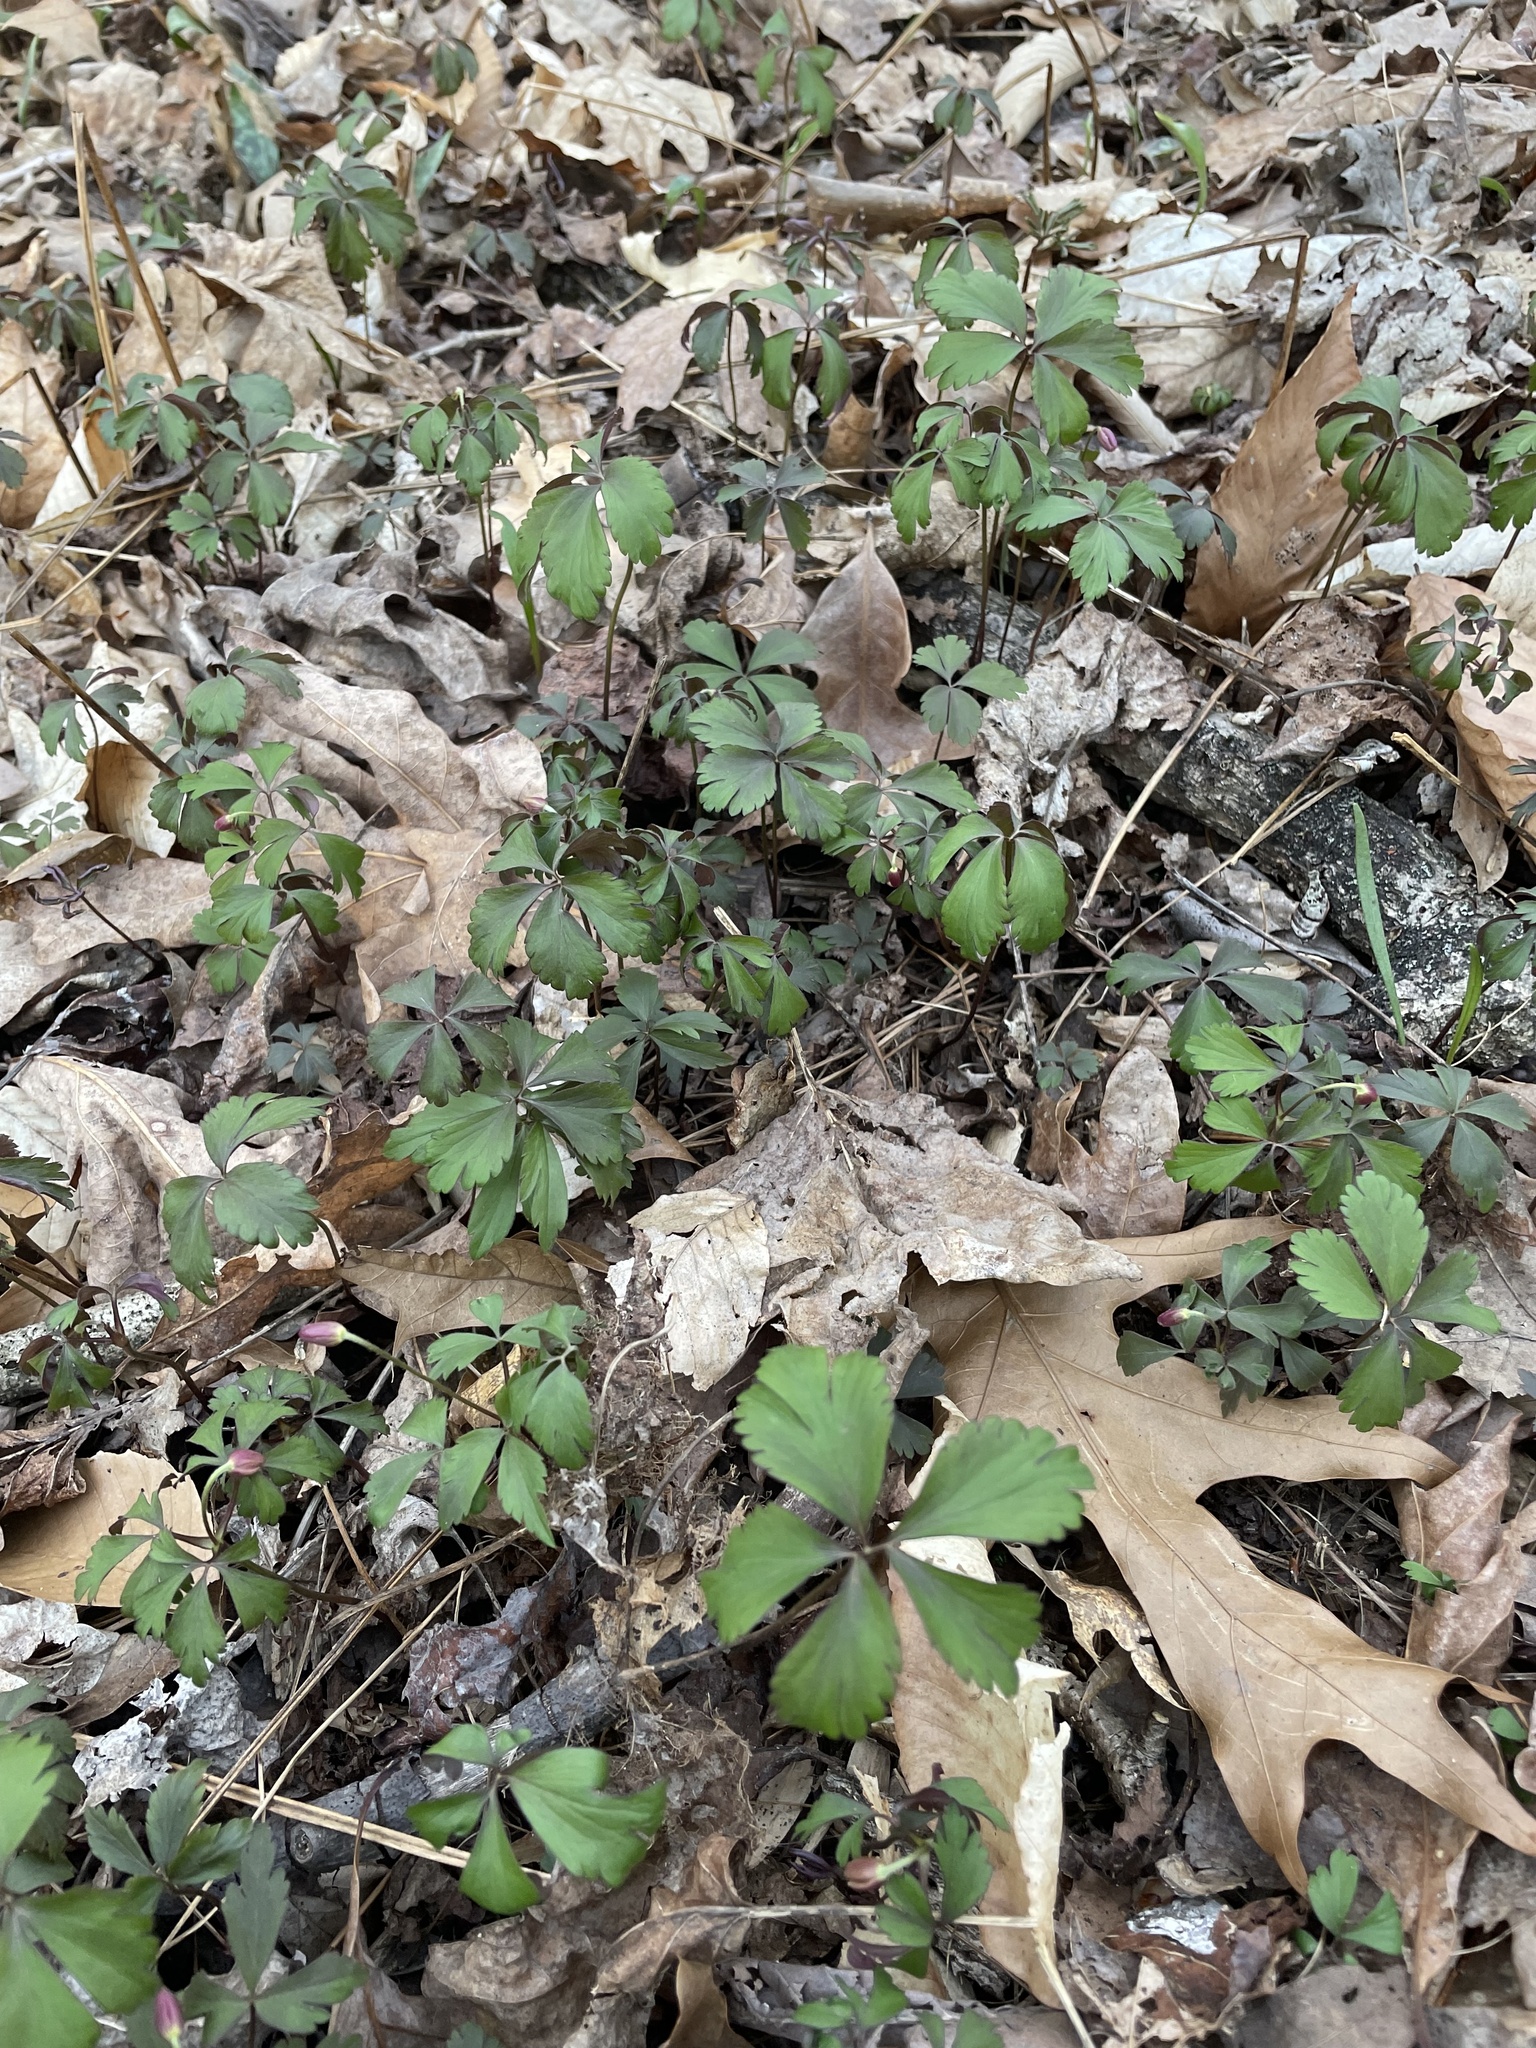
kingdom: Plantae
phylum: Tracheophyta
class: Magnoliopsida
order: Ranunculales
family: Ranunculaceae
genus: Anemone
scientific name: Anemone quinquefolia
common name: Wood anemone
